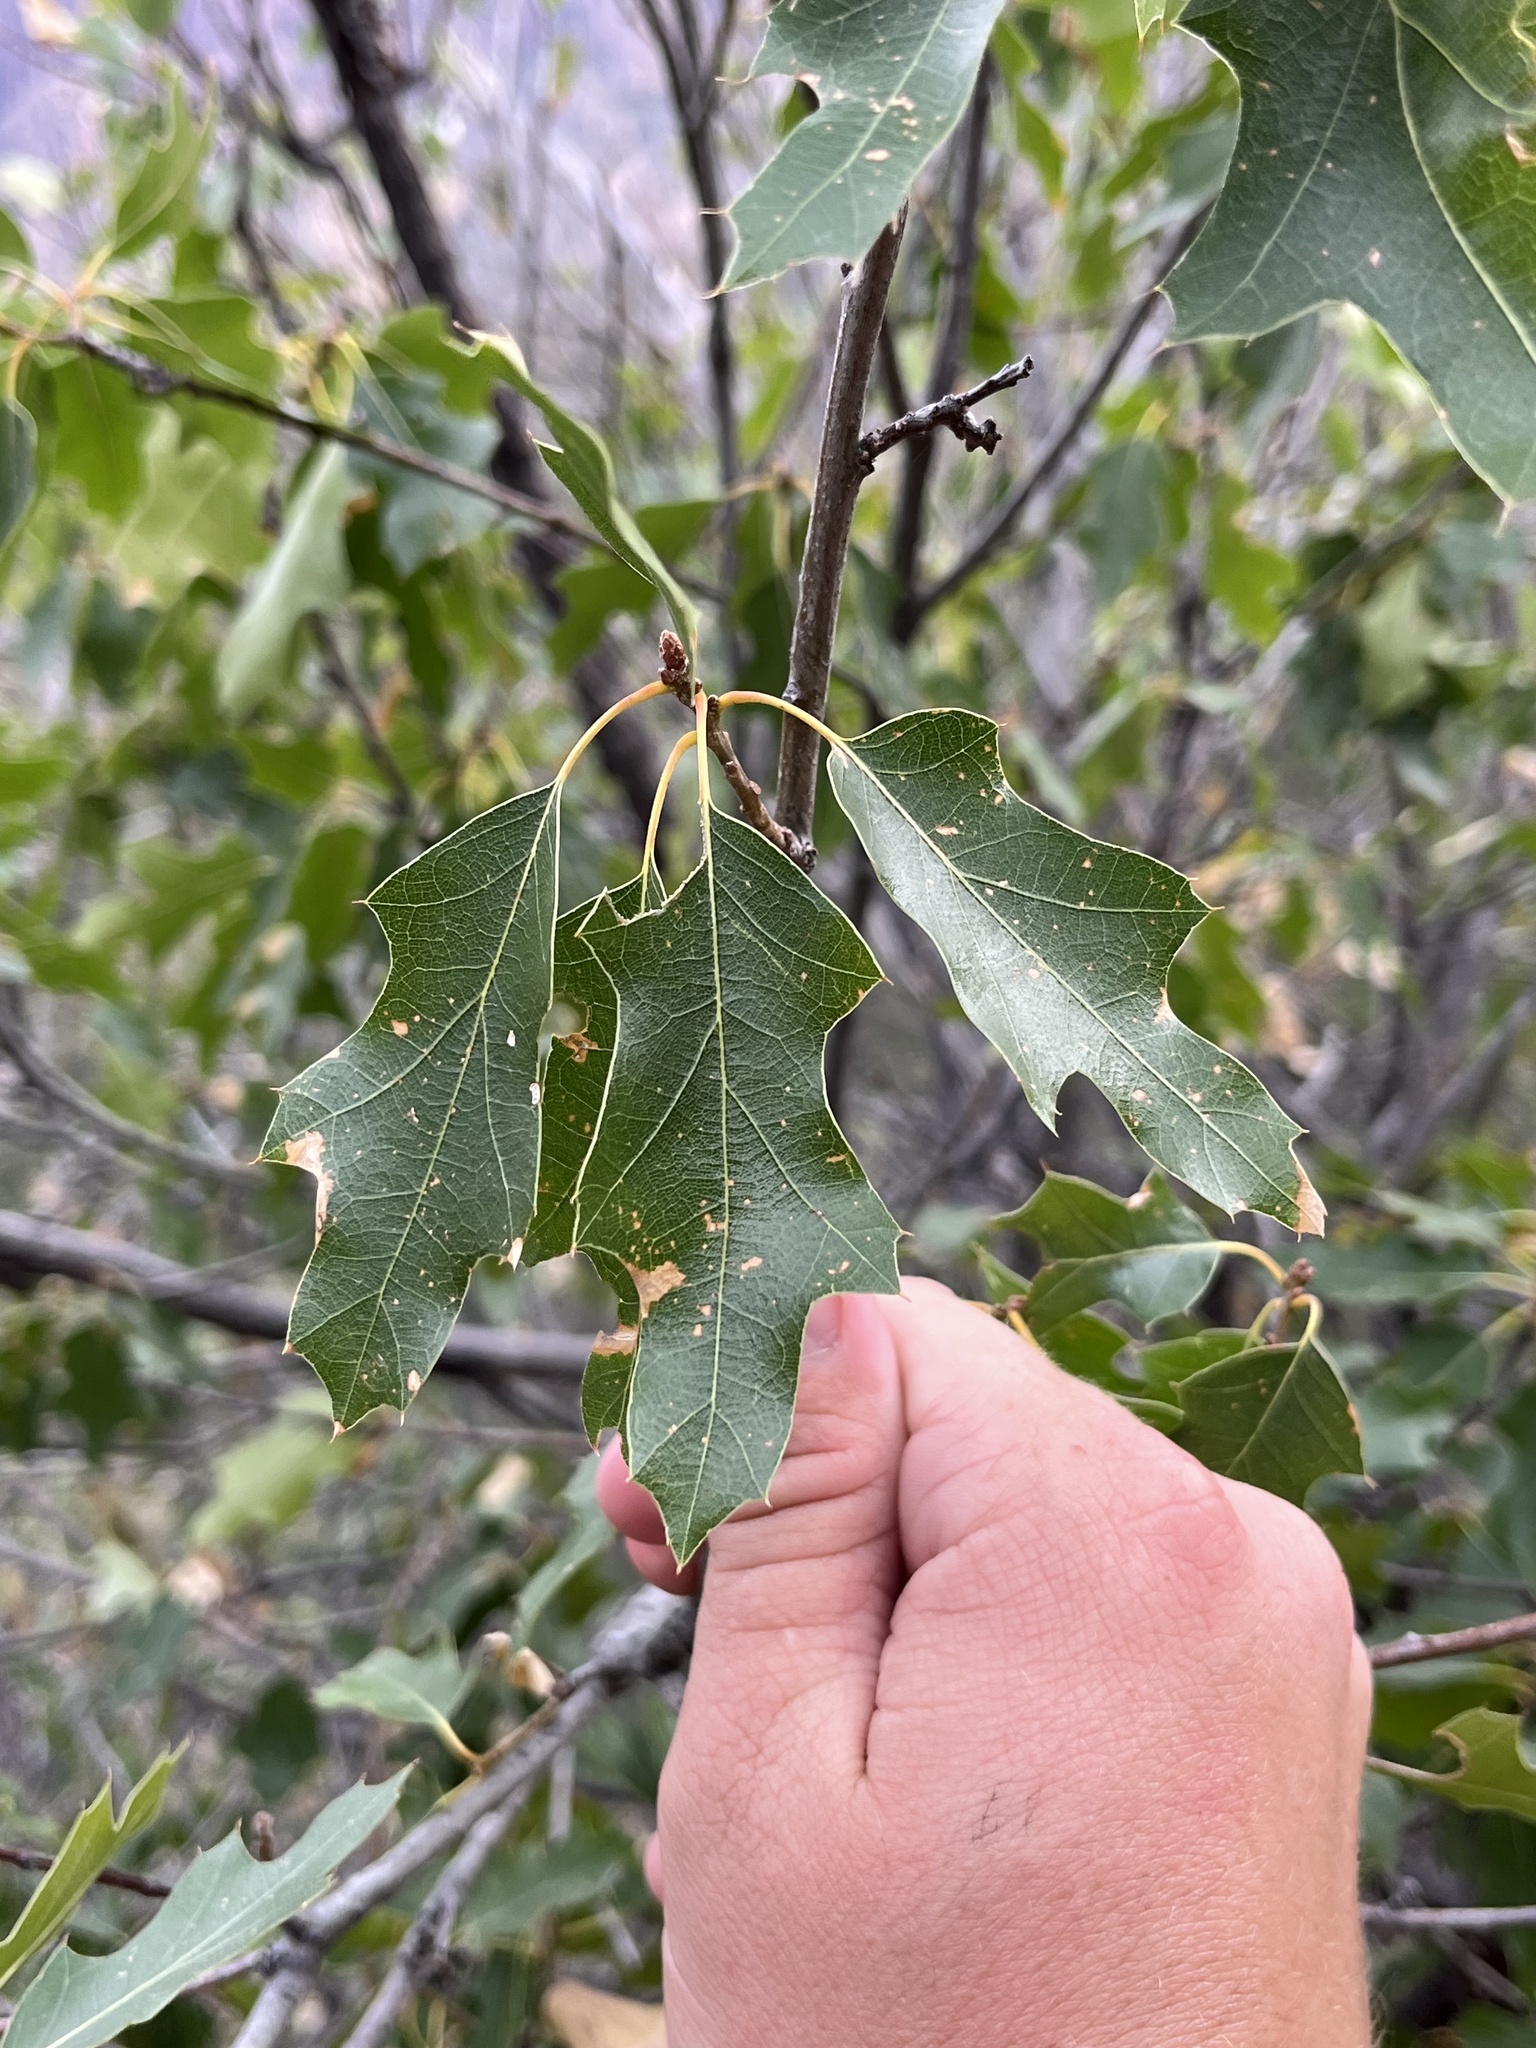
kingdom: Plantae
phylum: Tracheophyta
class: Magnoliopsida
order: Fagales
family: Fagaceae
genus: Quercus
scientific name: Quercus gravesii
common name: Chisos red oak
